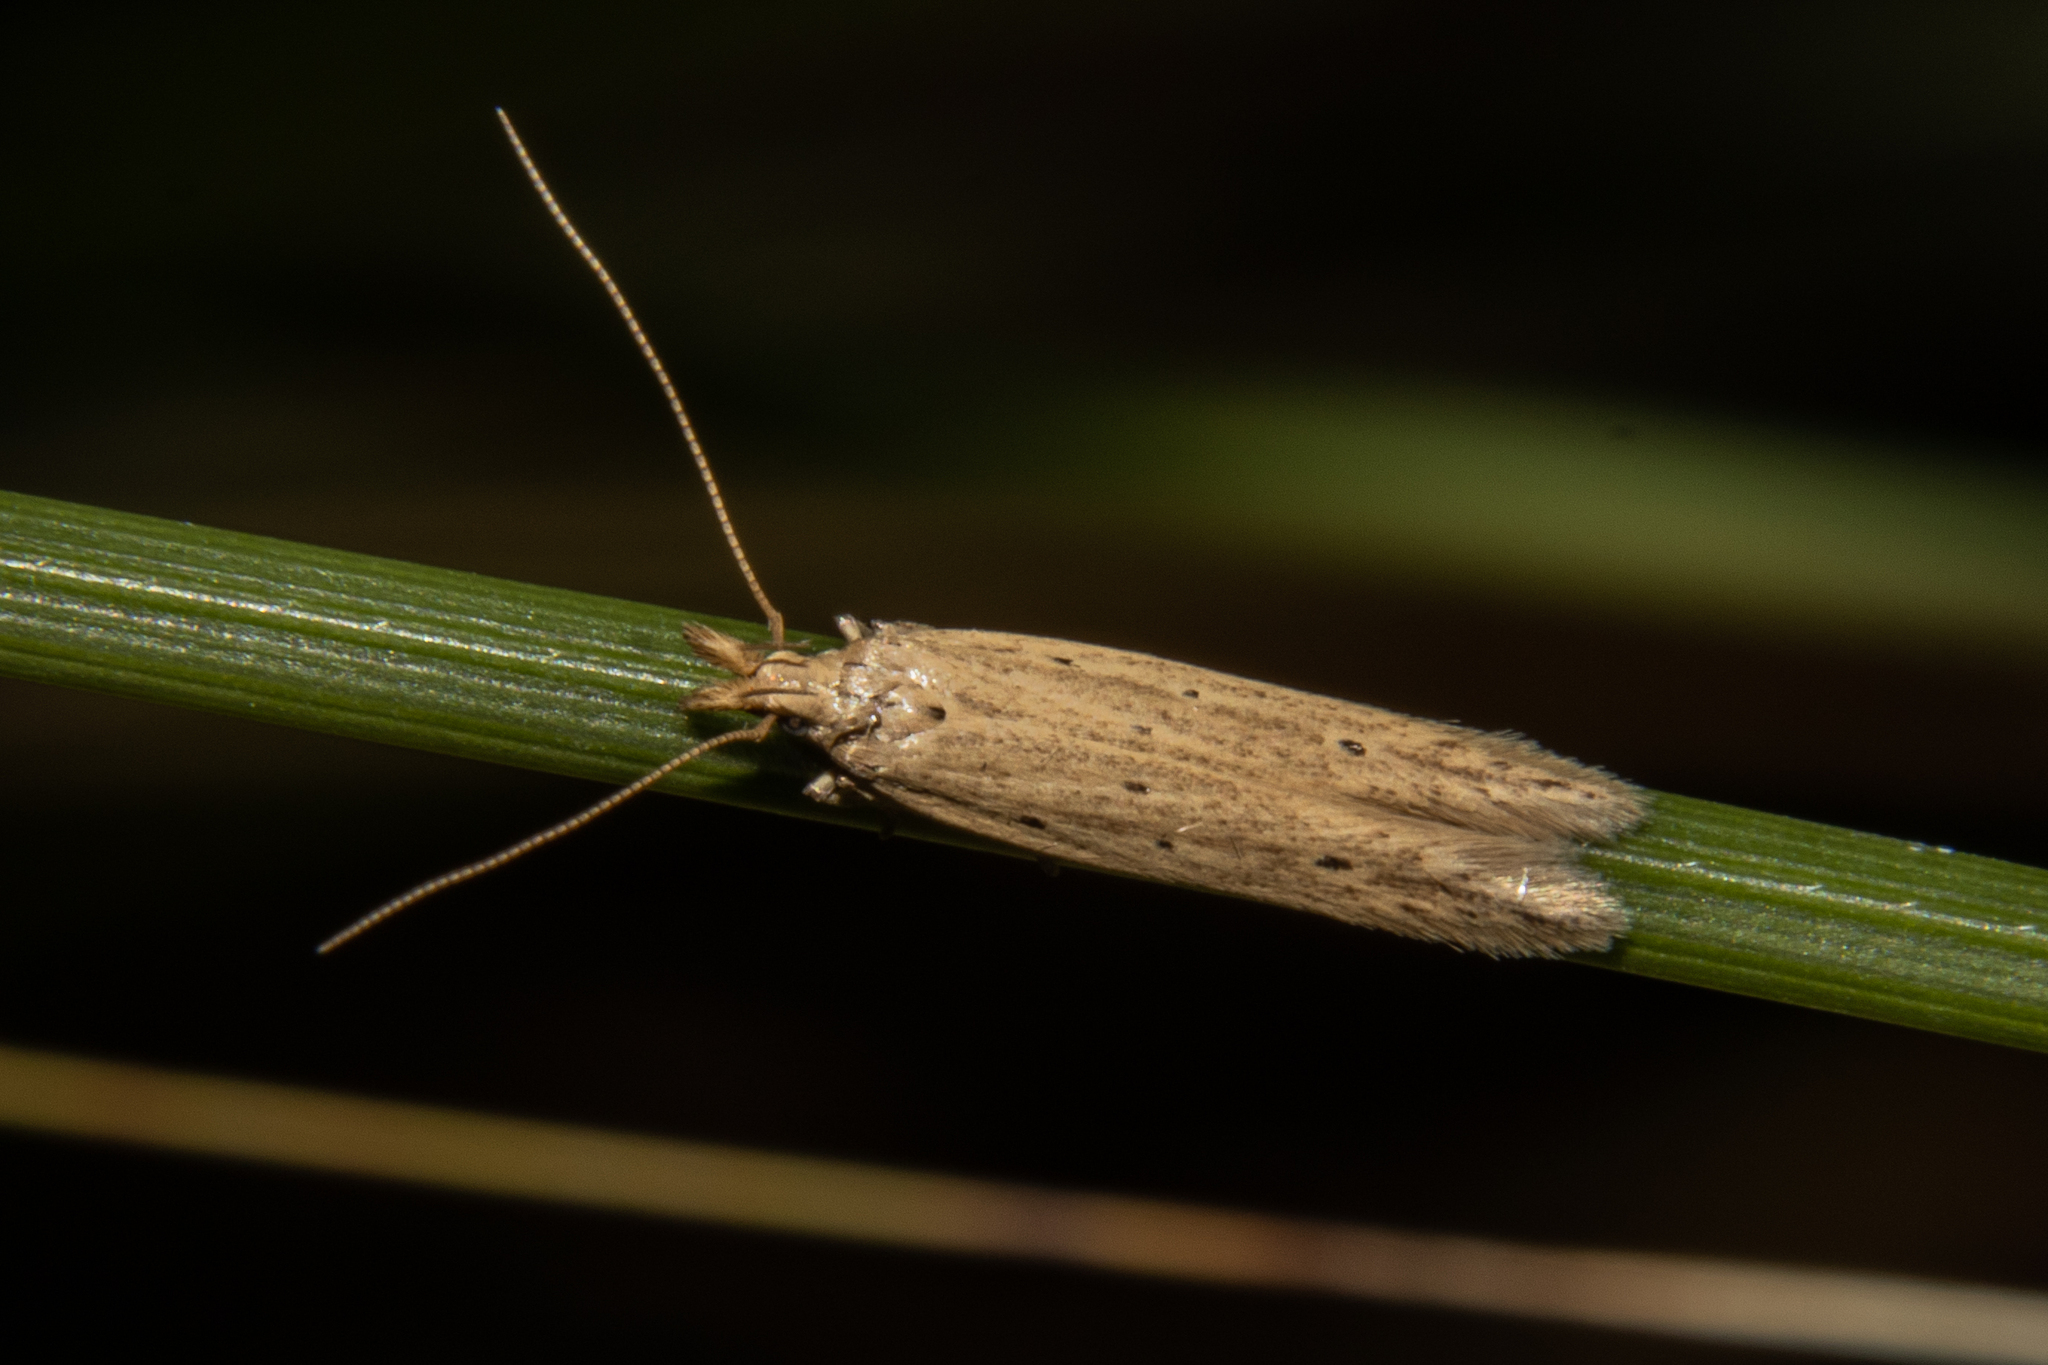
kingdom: Animalia
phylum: Arthropoda
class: Insecta
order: Lepidoptera
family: Gelechiidae
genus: Epiphthora
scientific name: Epiphthora calamogonus
